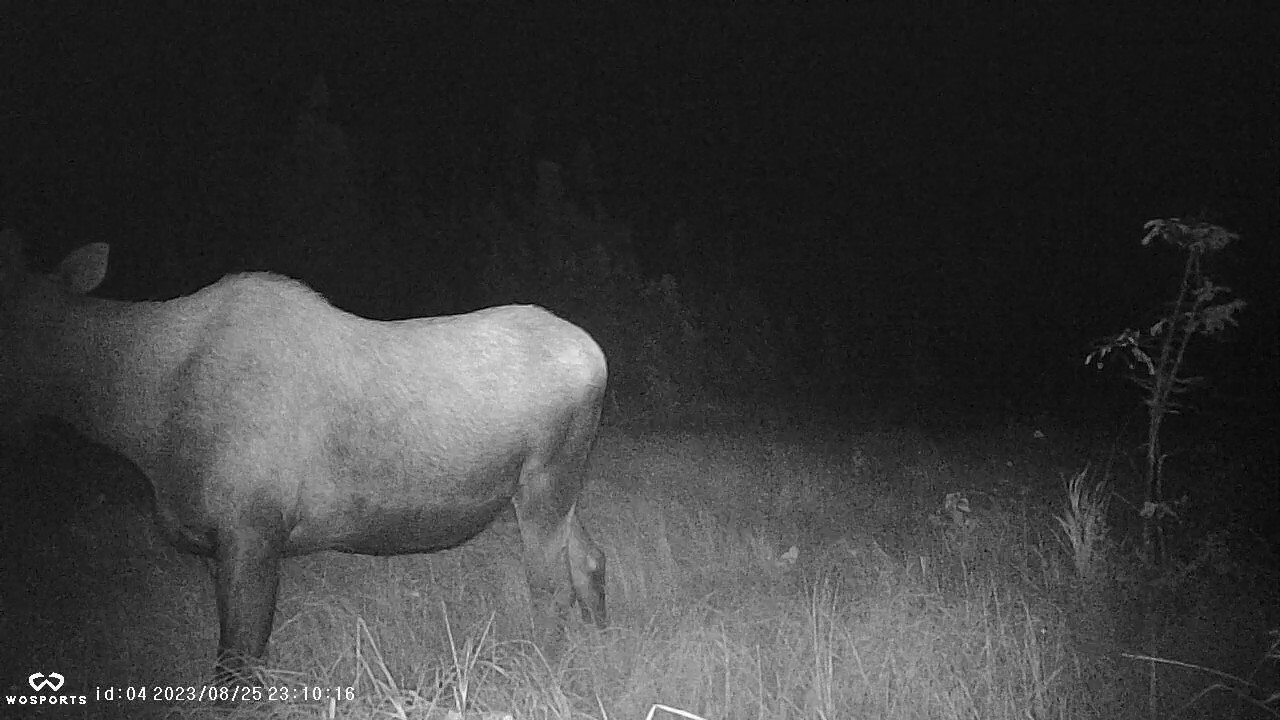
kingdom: Animalia
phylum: Chordata
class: Mammalia
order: Artiodactyla
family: Cervidae
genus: Alces
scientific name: Alces alces
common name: Moose
